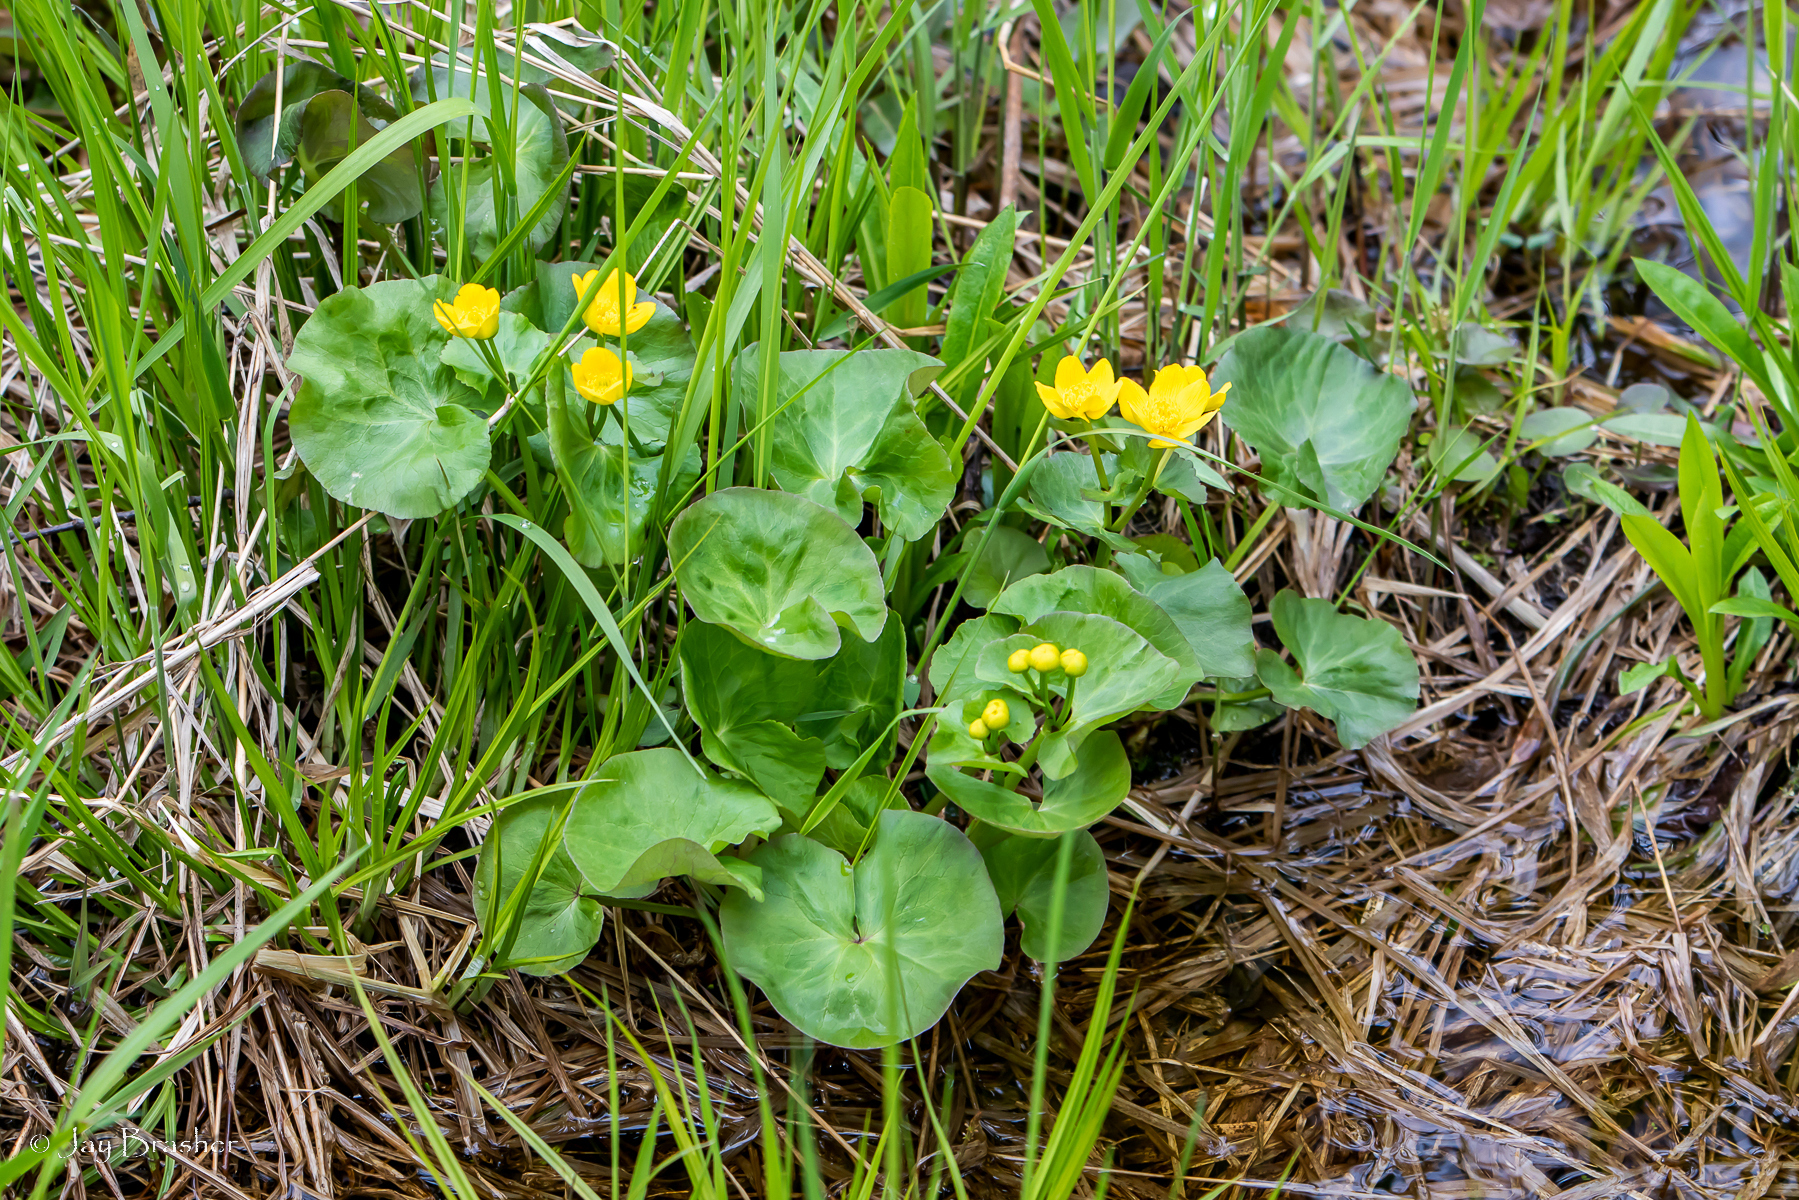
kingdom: Plantae
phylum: Tracheophyta
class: Magnoliopsida
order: Ranunculales
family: Ranunculaceae
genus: Caltha
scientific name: Caltha palustris
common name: Marsh marigold
